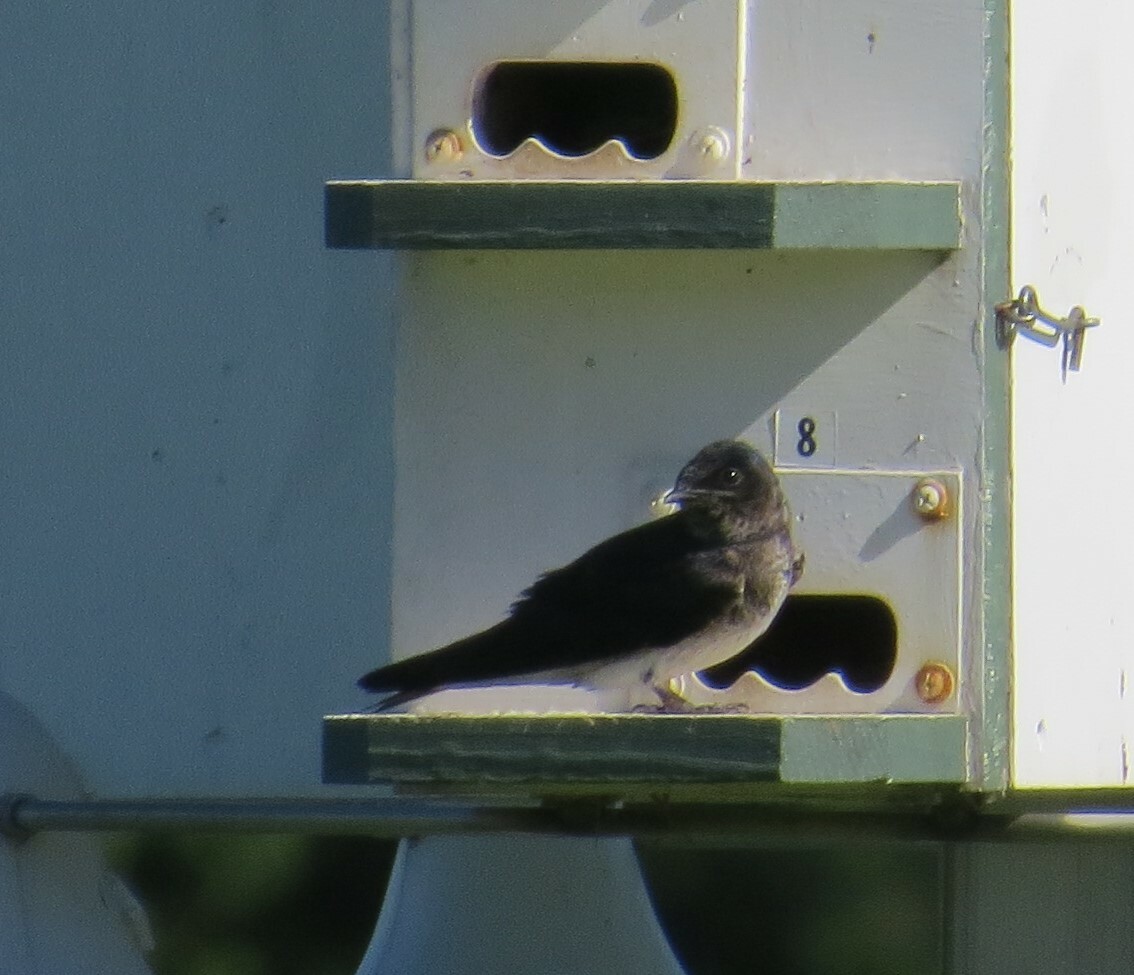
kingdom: Animalia
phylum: Chordata
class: Aves
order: Passeriformes
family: Hirundinidae
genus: Progne
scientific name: Progne subis
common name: Purple martin
